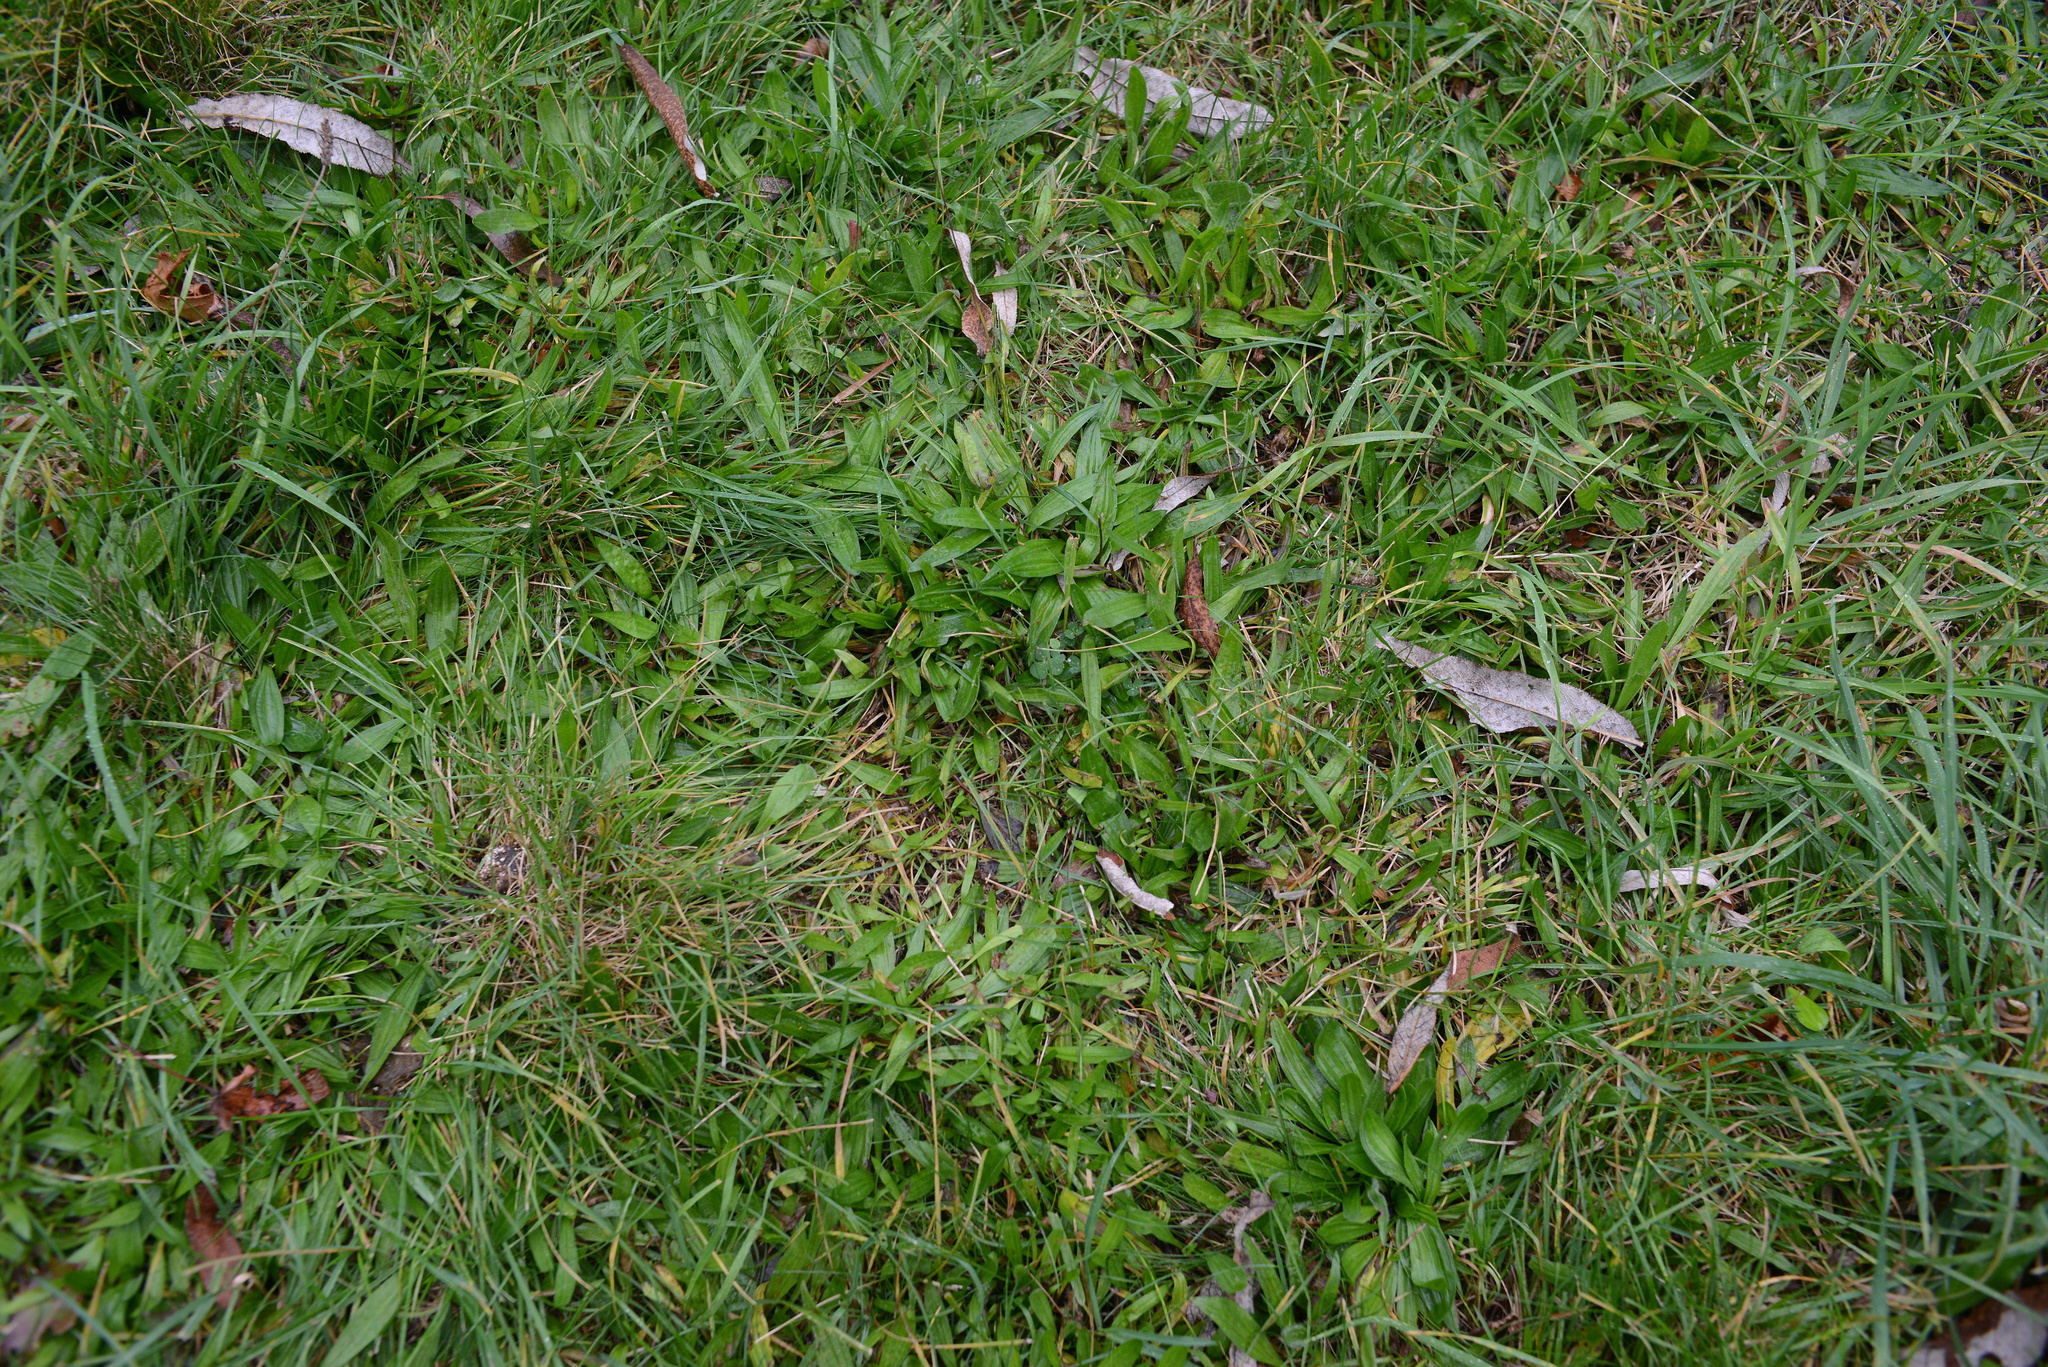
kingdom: Plantae
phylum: Tracheophyta
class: Magnoliopsida
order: Lamiales
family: Plantaginaceae
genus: Plantago
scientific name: Plantago lanceolata
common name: Ribwort plantain
